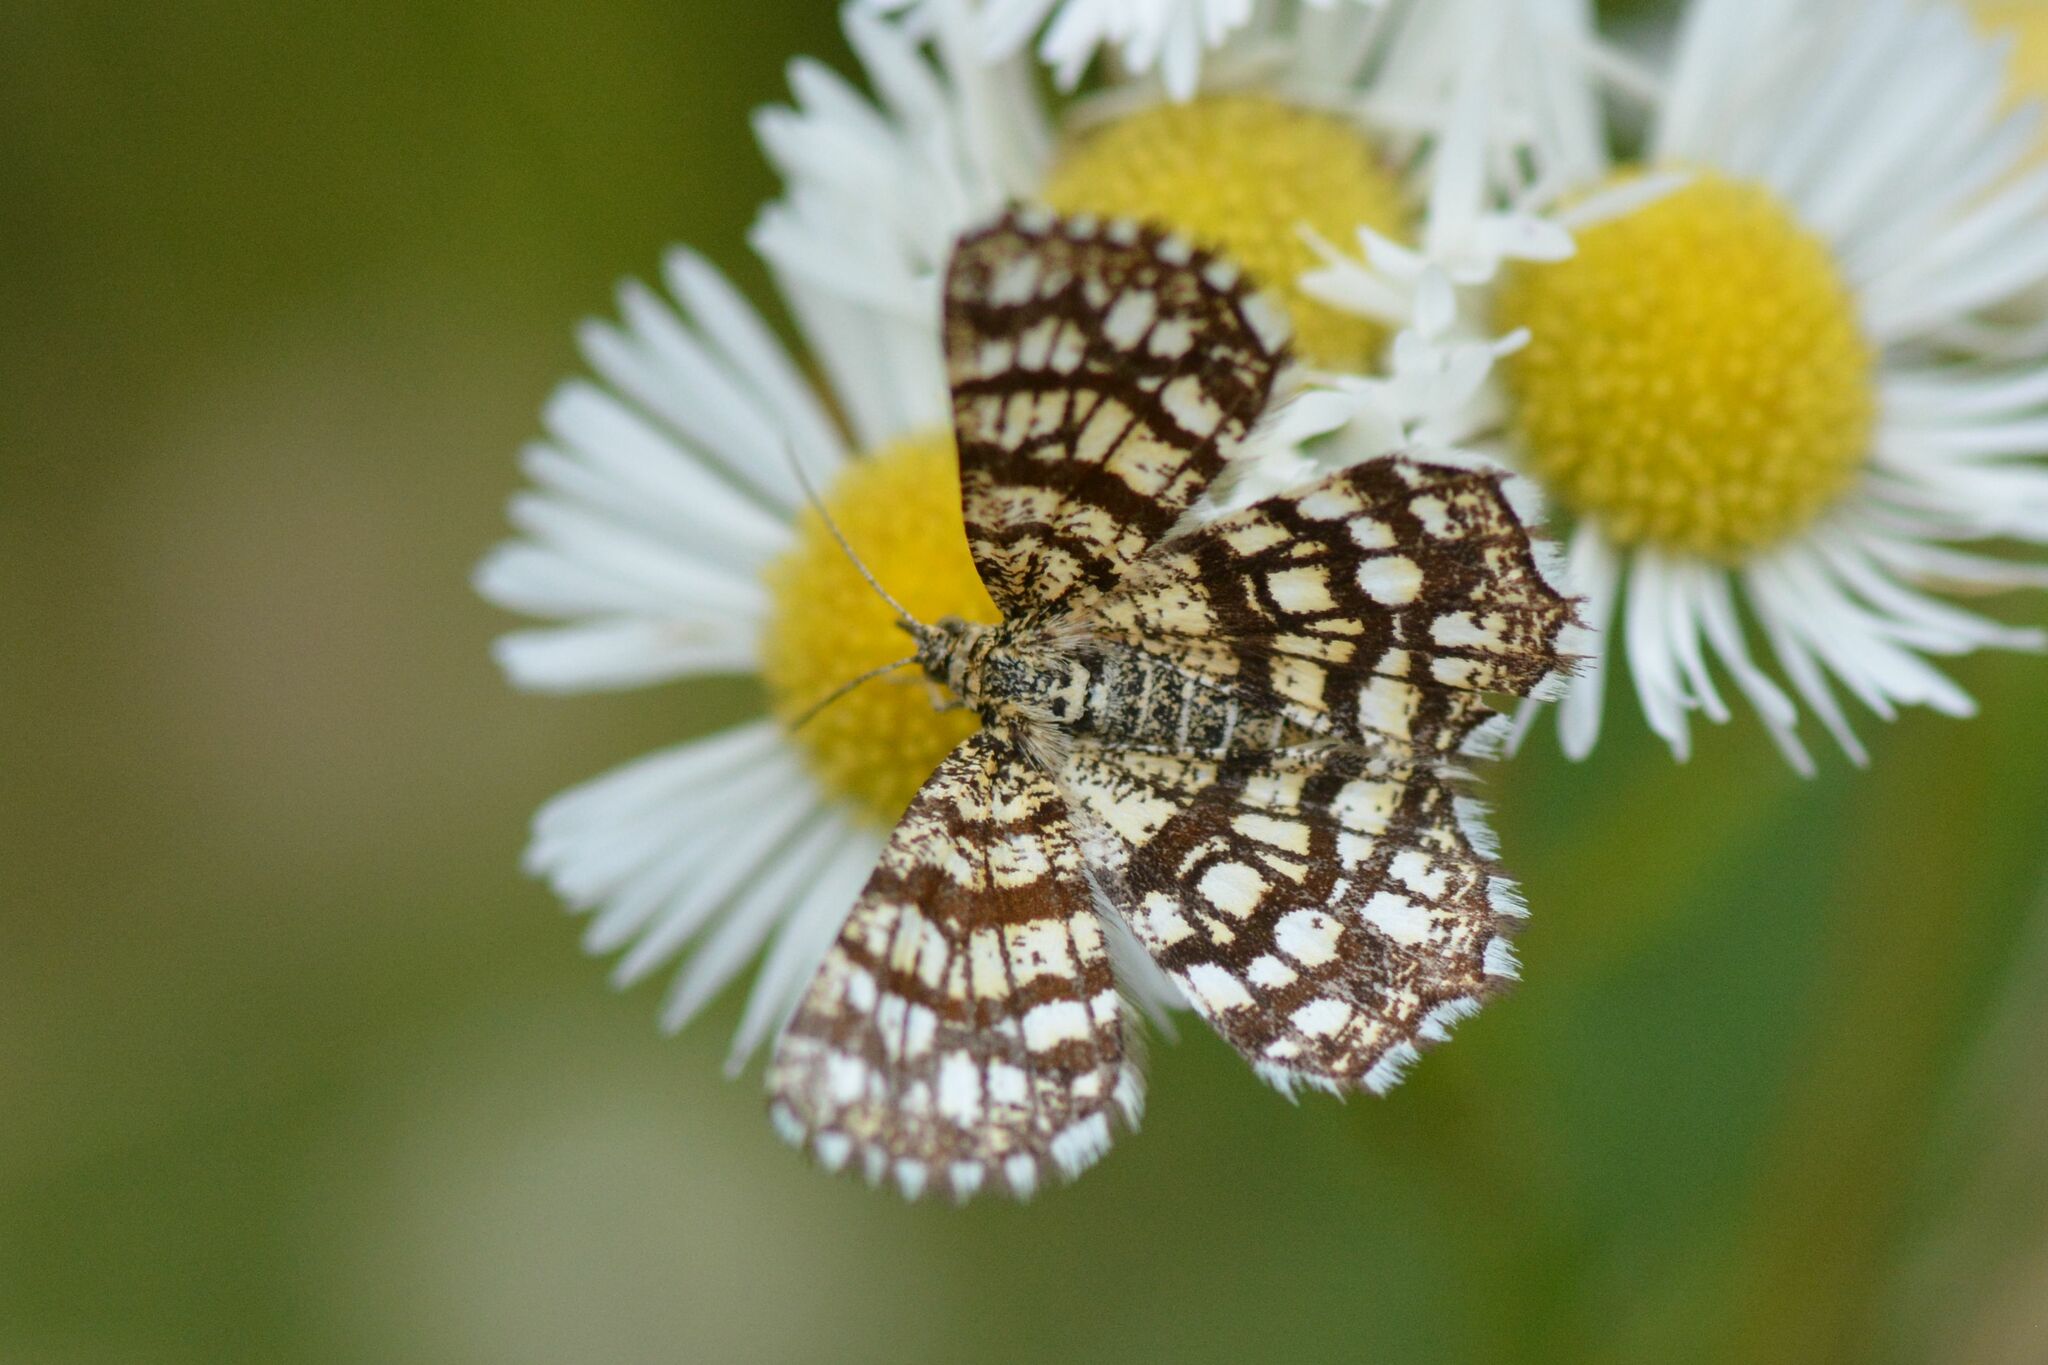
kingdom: Animalia
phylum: Arthropoda
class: Insecta
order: Lepidoptera
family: Geometridae
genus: Chiasmia
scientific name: Chiasmia clathrata
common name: Latticed heath
